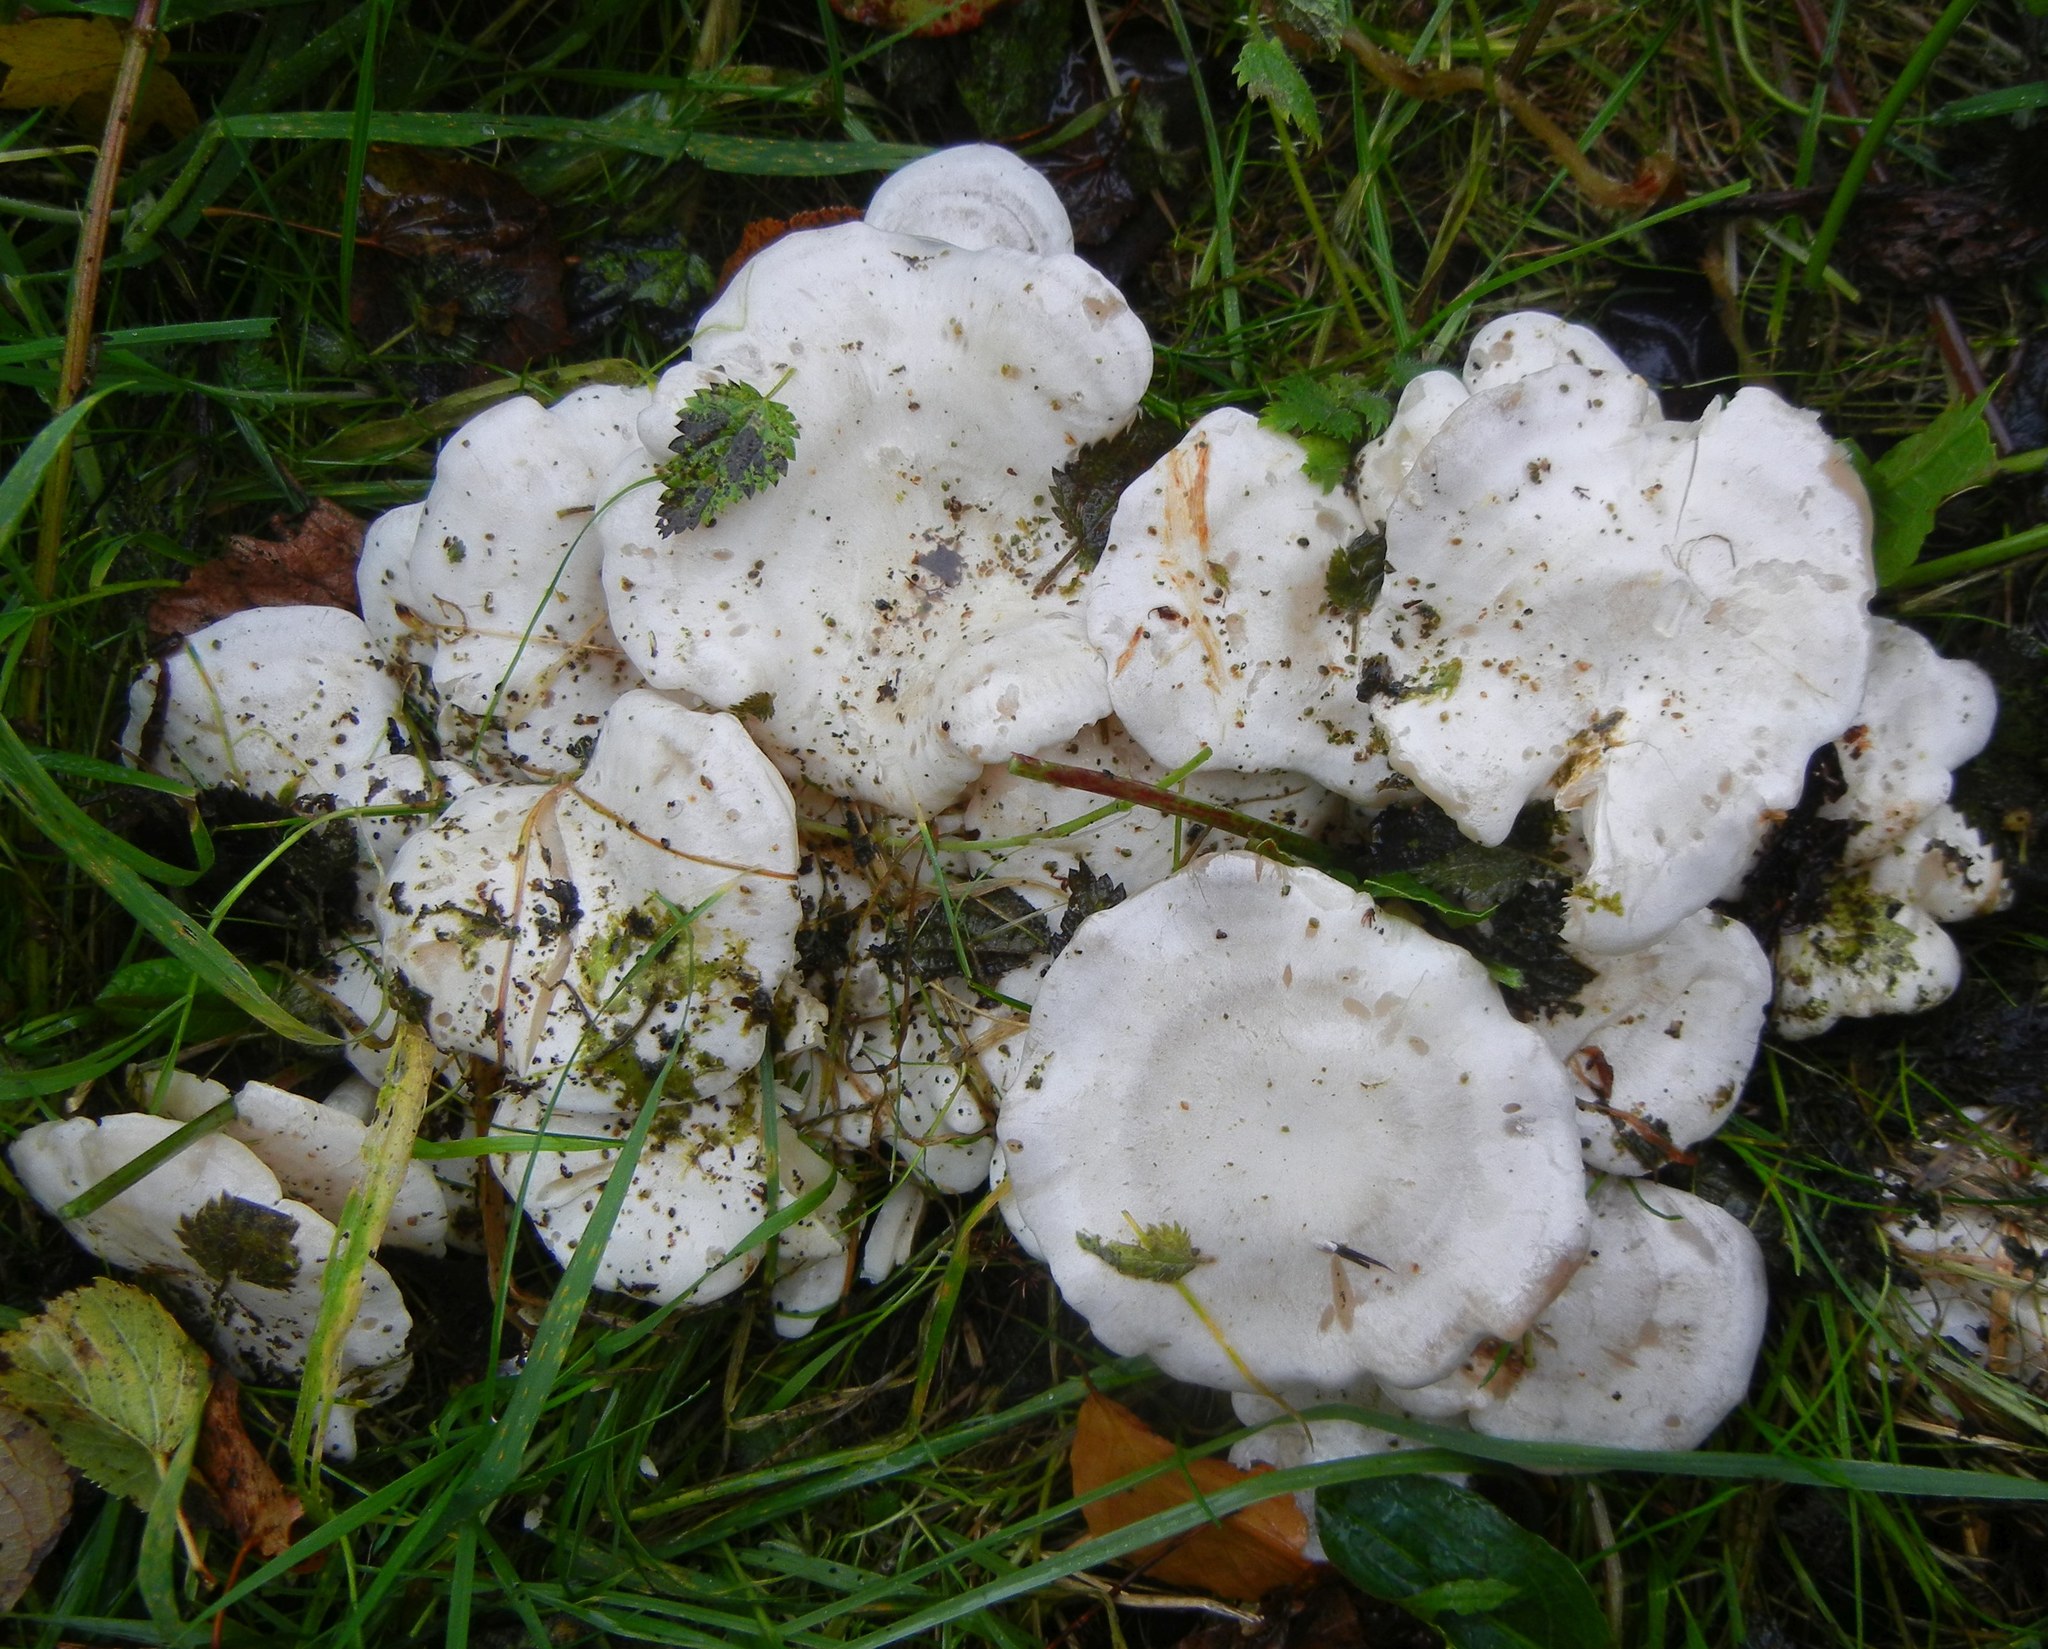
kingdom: Fungi
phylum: Basidiomycota
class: Agaricomycetes
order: Agaricales
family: Tricholomataceae
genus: Leucocybe
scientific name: Leucocybe connata
